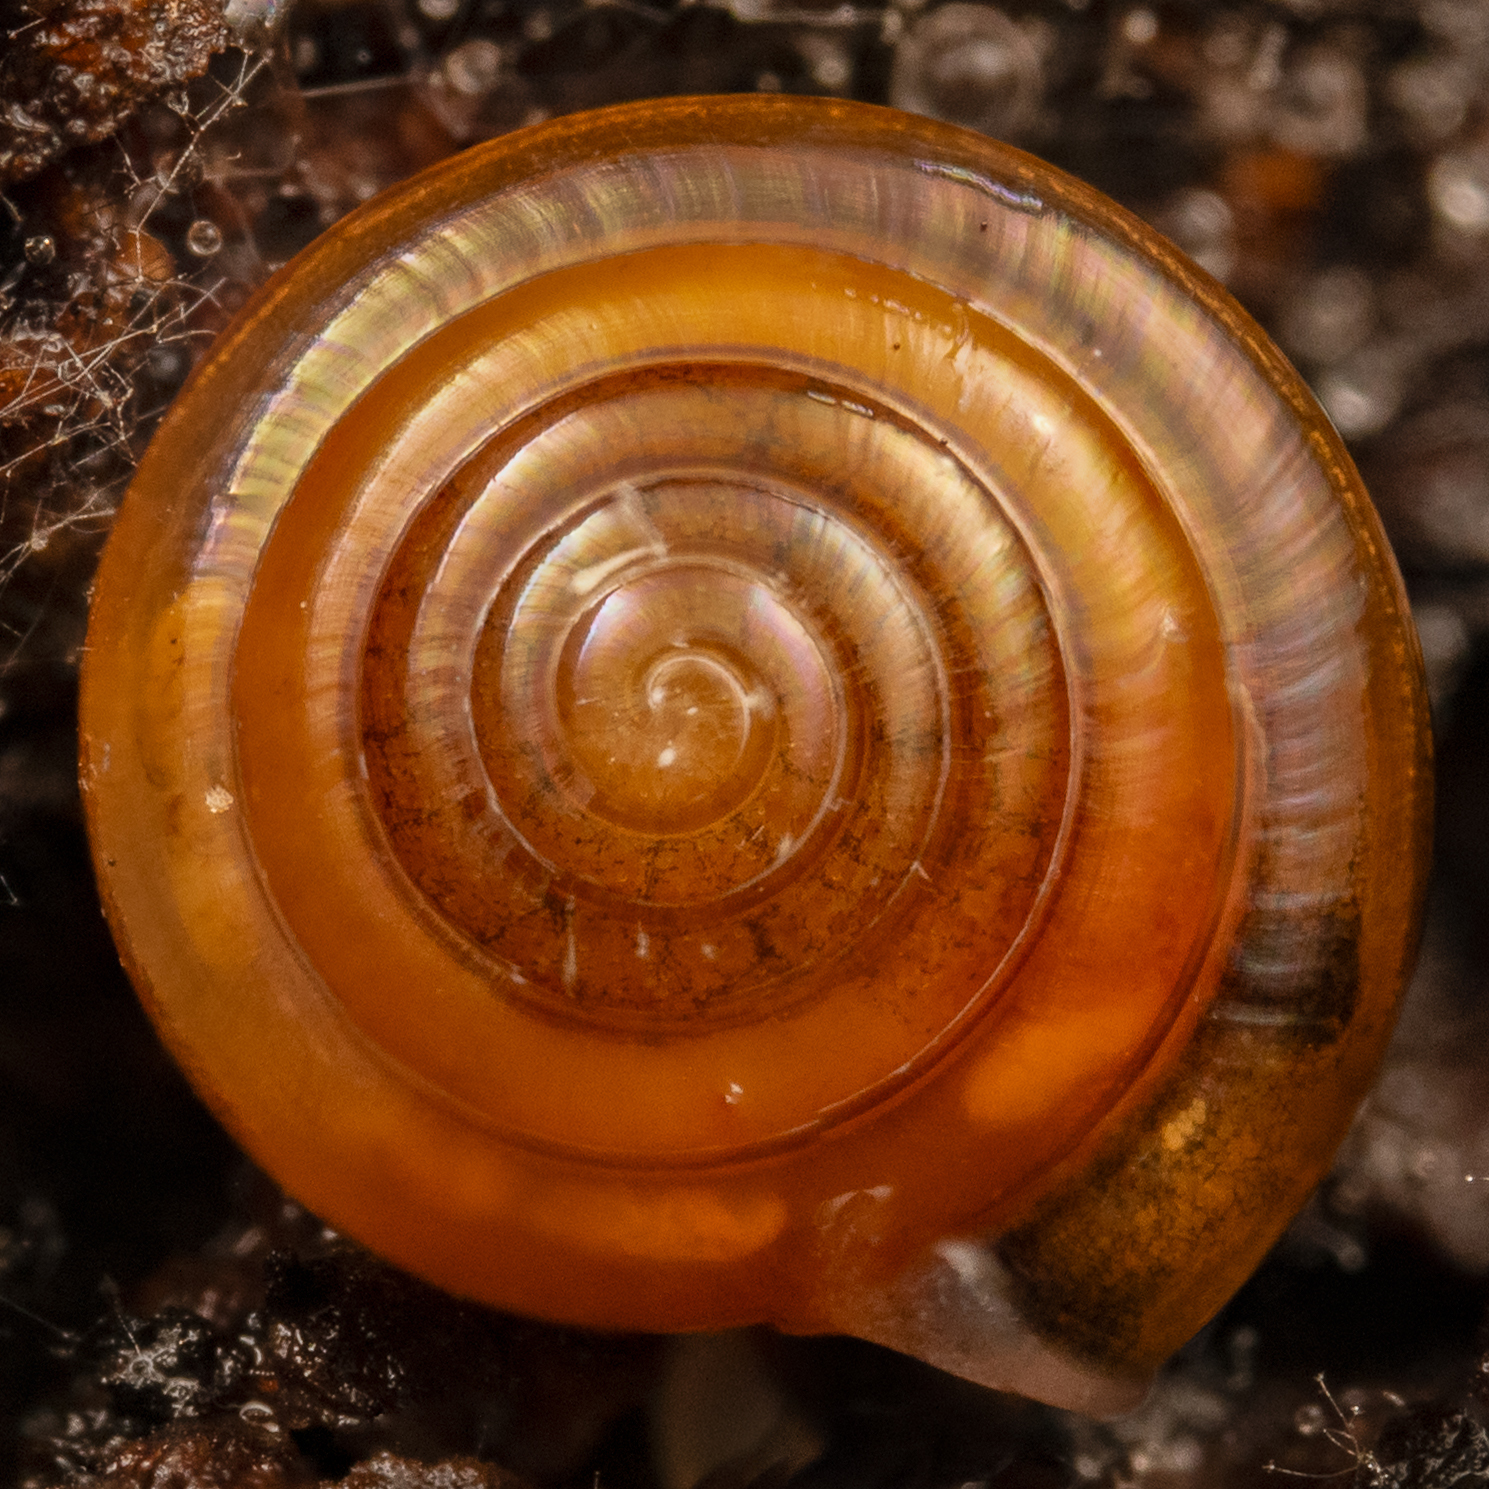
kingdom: Animalia
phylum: Mollusca
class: Gastropoda
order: Stylommatophora
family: Pristilomatidae
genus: Pristiloma
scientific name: Pristiloma idahoense
